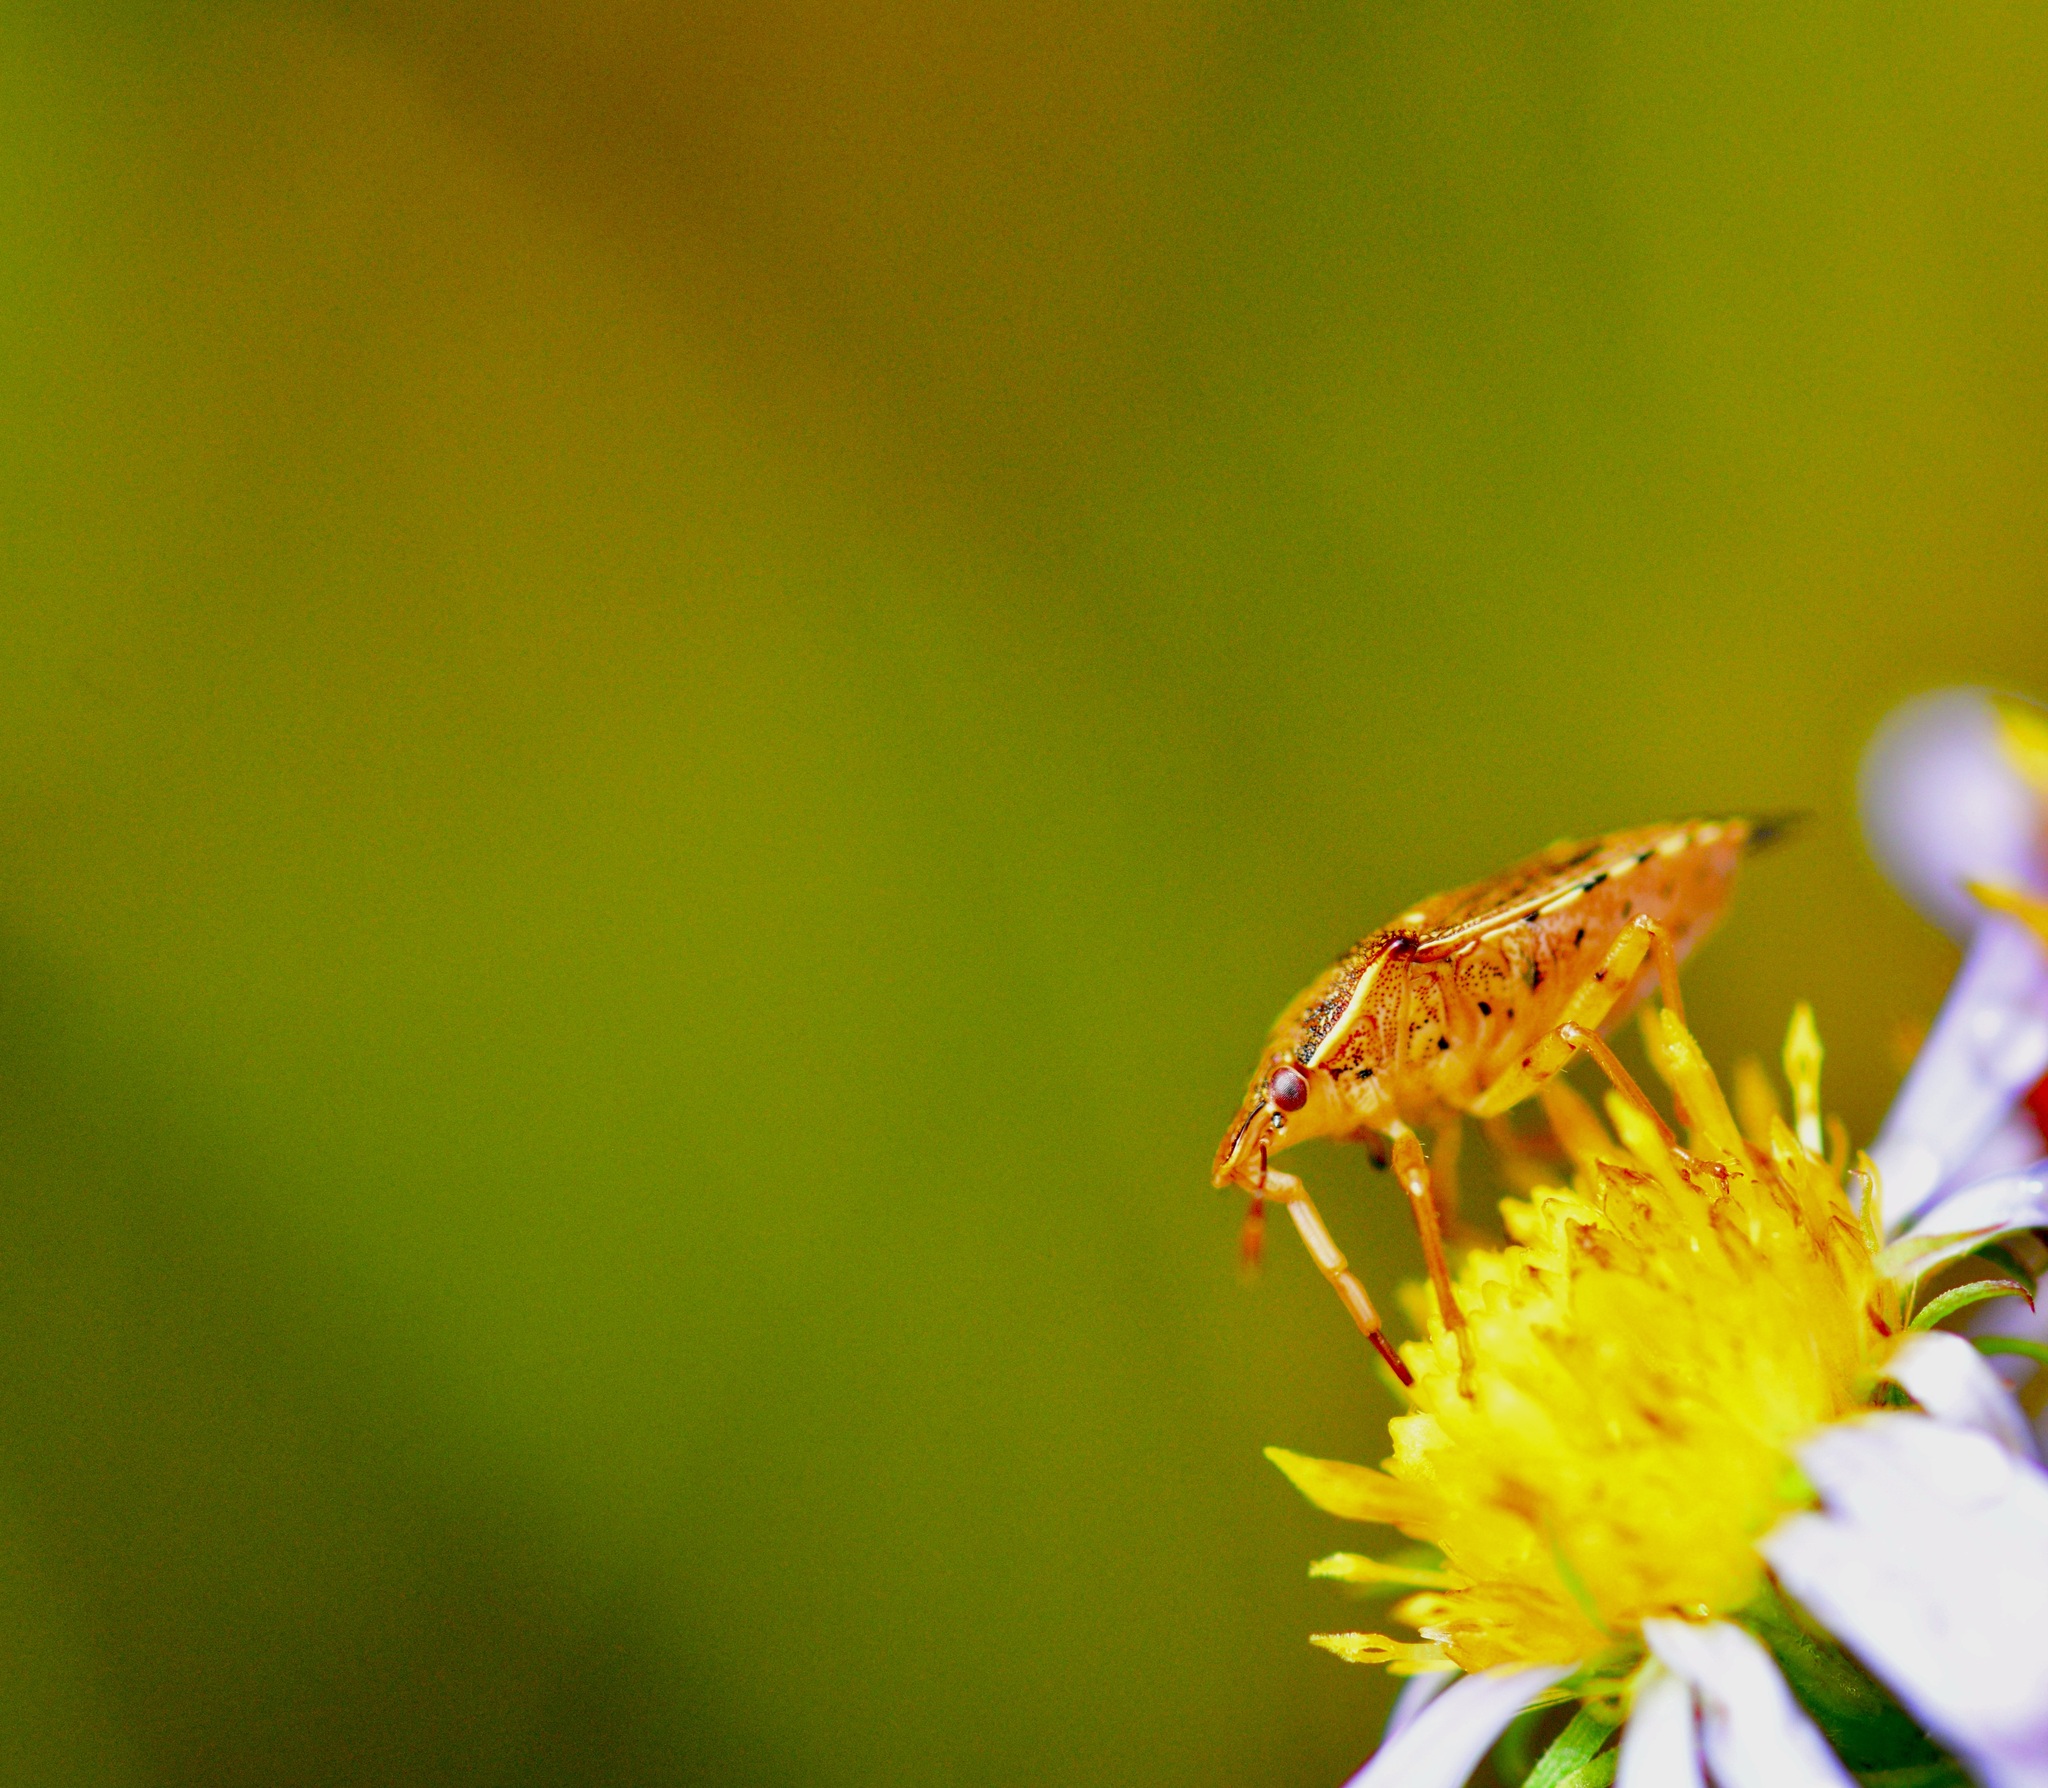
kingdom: Animalia
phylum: Arthropoda
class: Insecta
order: Hemiptera
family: Pentatomidae
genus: Podisus
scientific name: Podisus maculiventris
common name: Spined soldier bug
